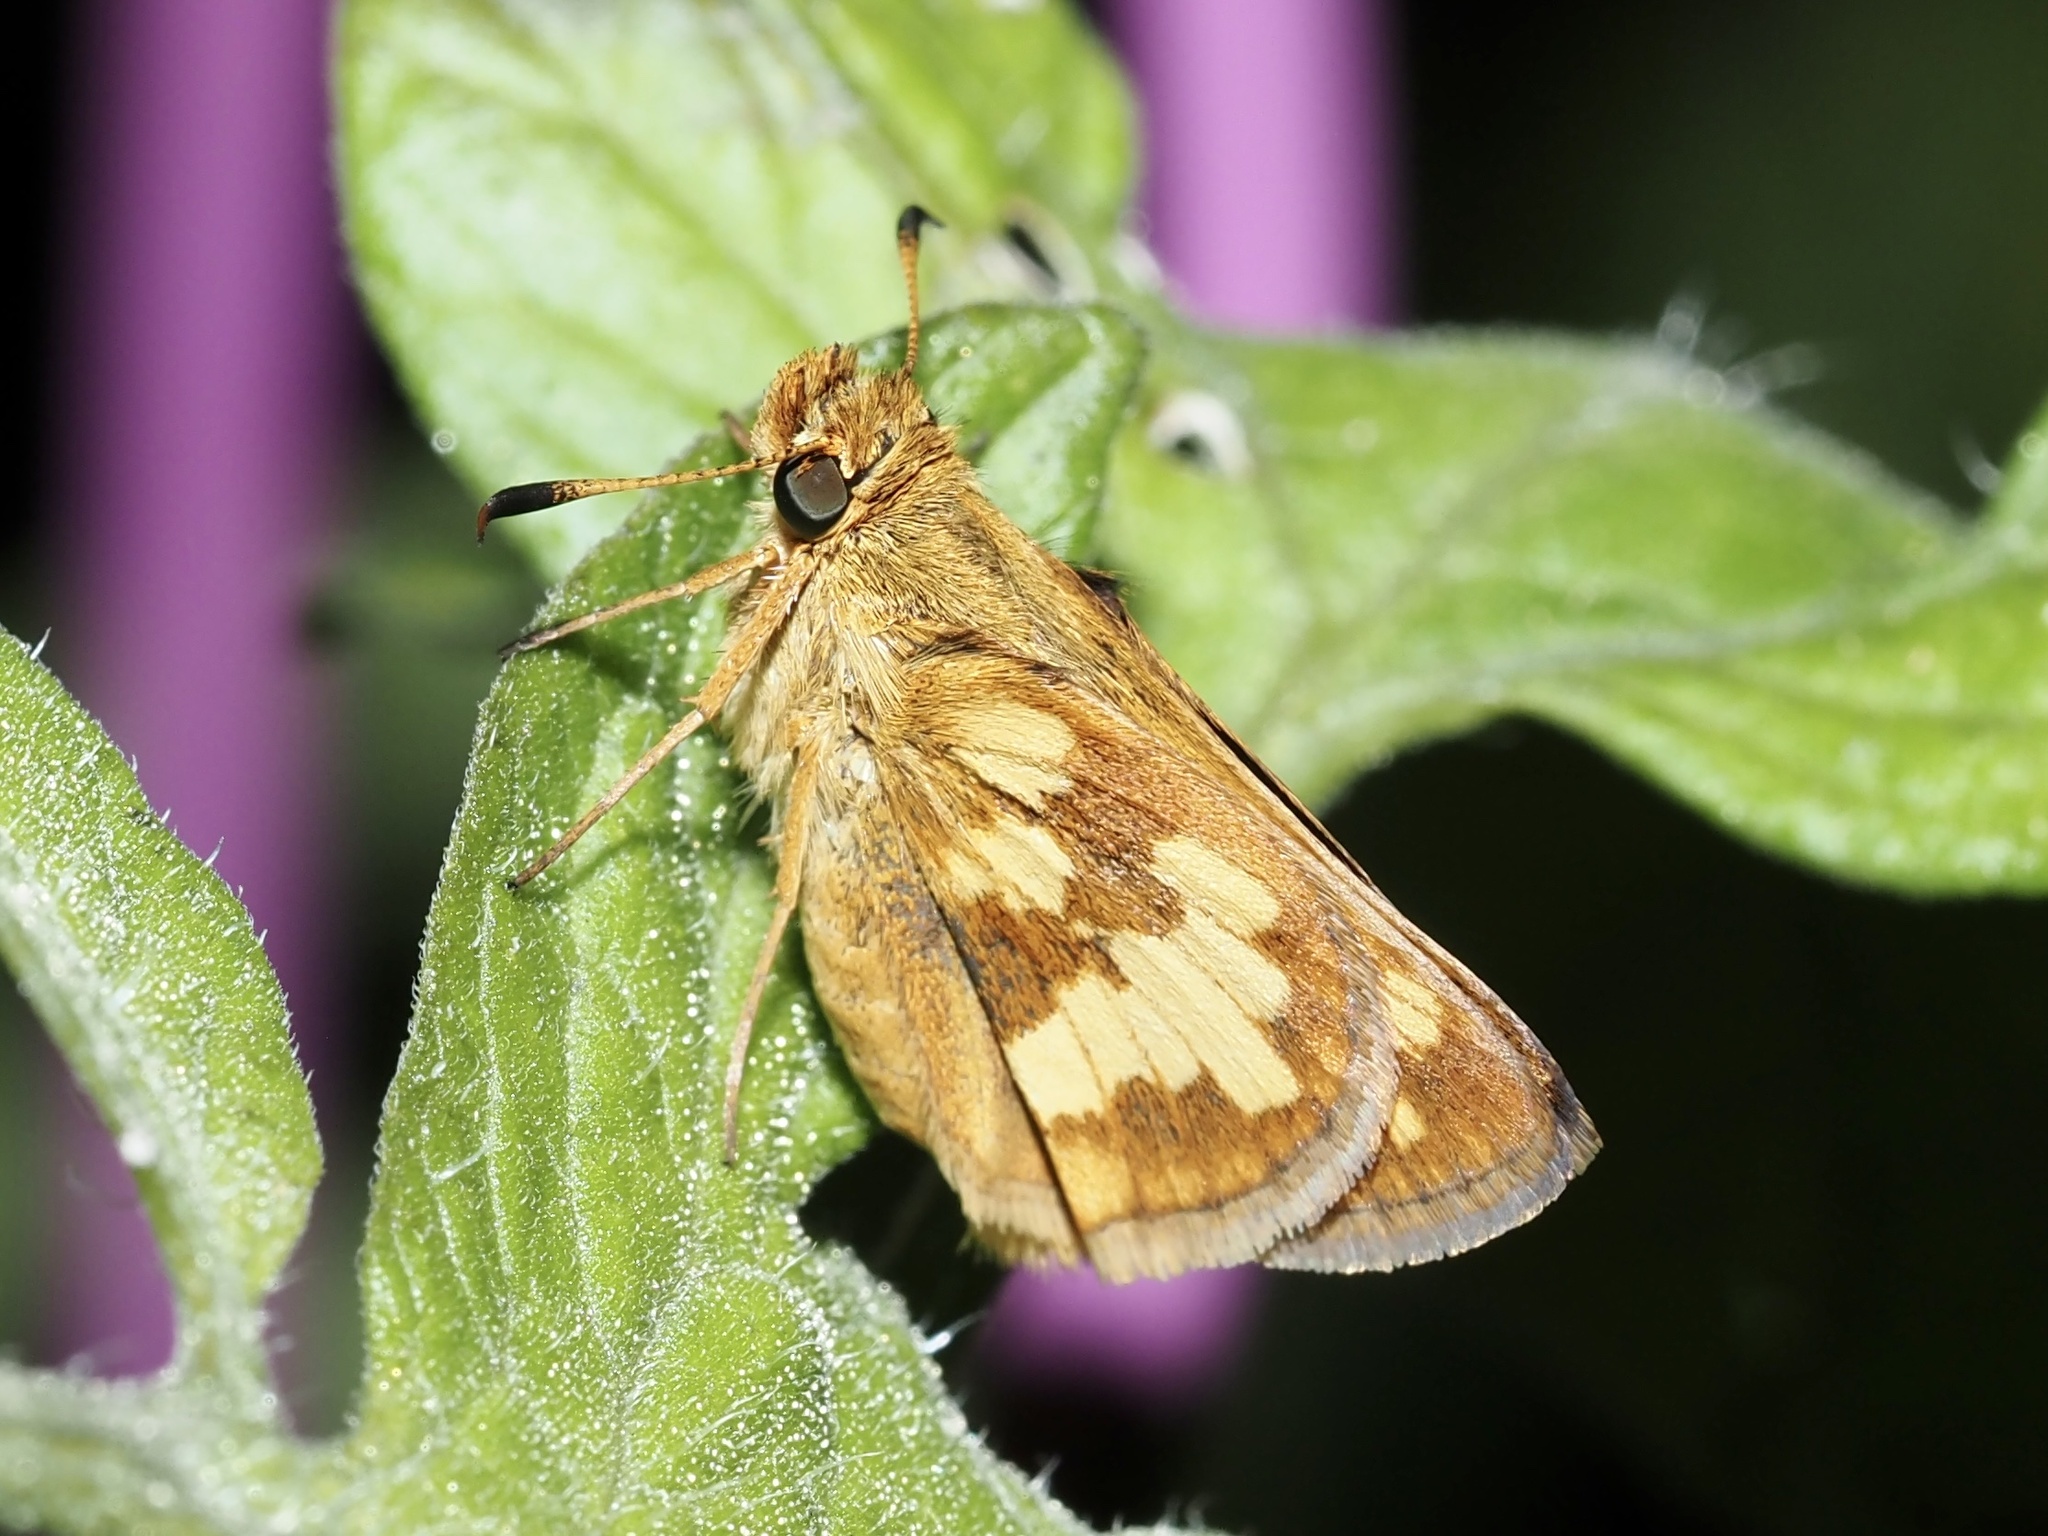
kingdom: Animalia
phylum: Arthropoda
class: Insecta
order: Lepidoptera
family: Hesperiidae
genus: Polites
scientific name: Polites coras
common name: Peck's skipper
